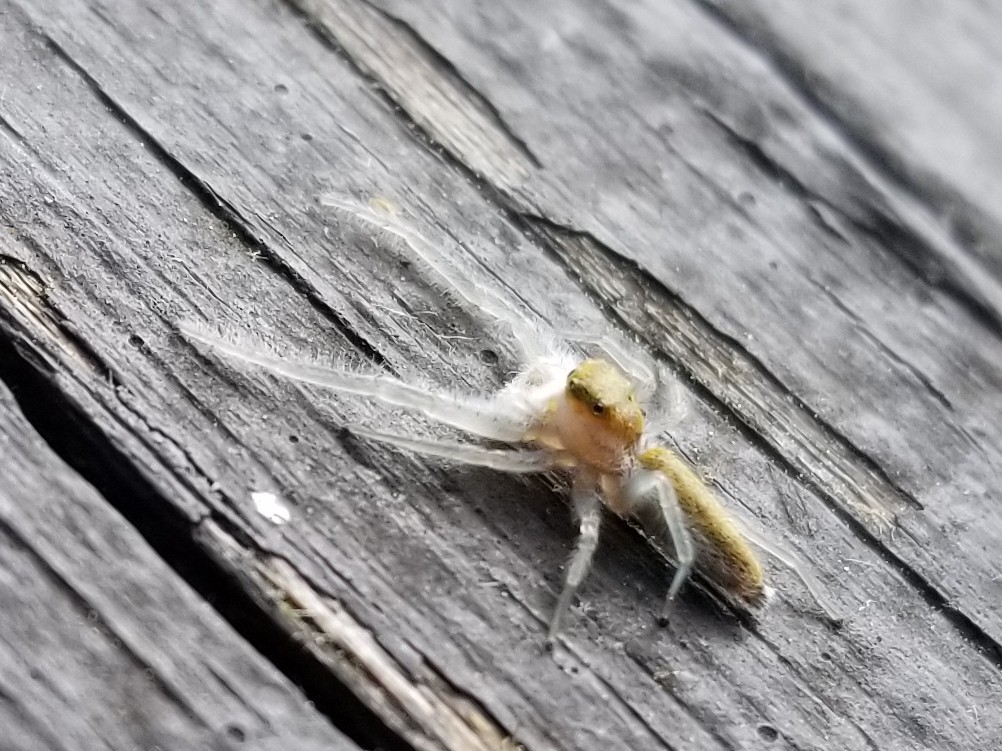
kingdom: Animalia
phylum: Arthropoda
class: Arachnida
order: Araneae
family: Salticidae
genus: Hentzia
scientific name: Hentzia mitrata
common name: White-jawed jumping spider
